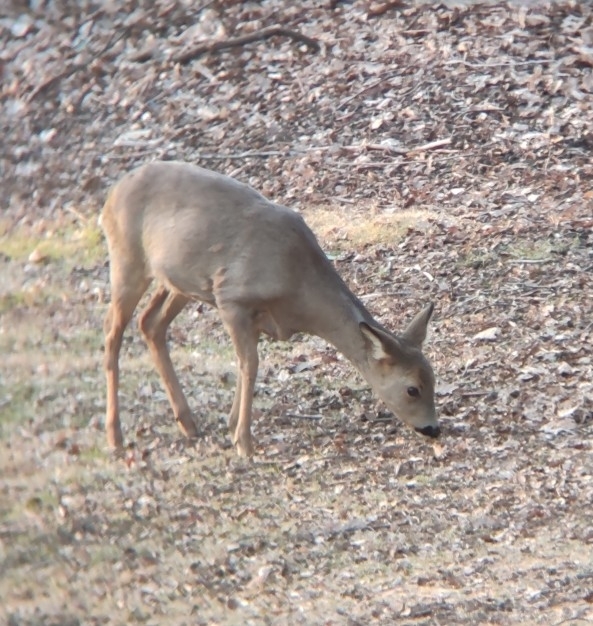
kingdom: Animalia
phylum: Chordata
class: Mammalia
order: Artiodactyla
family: Cervidae
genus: Capreolus
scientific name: Capreolus capreolus
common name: Western roe deer
